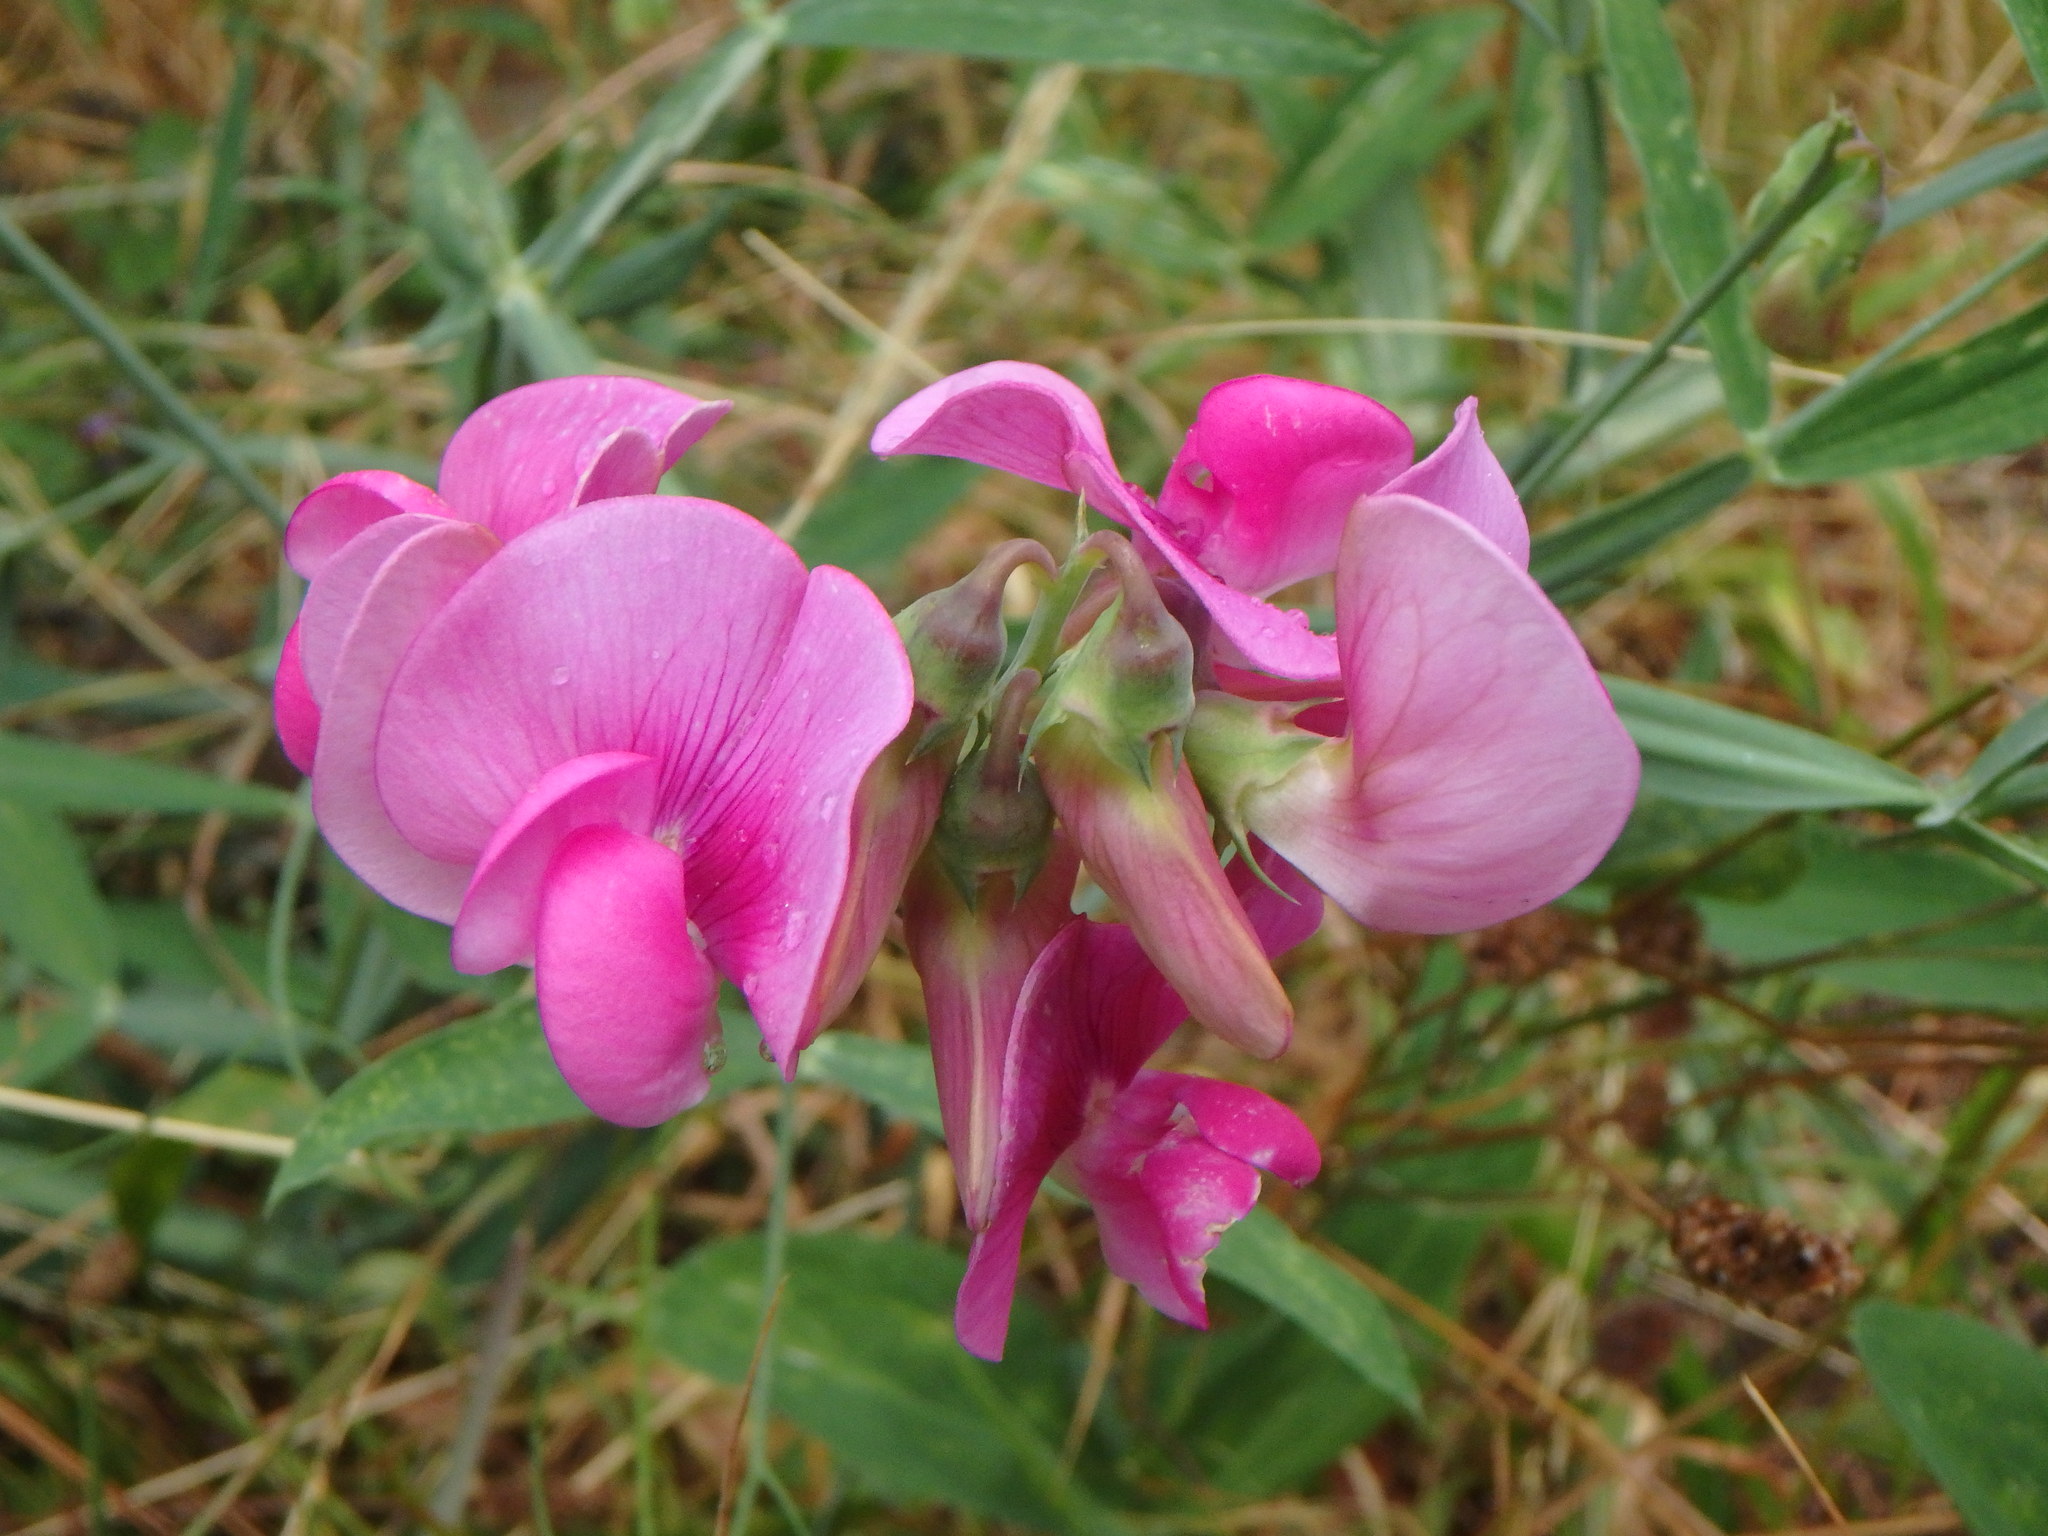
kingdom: Plantae
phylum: Tracheophyta
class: Magnoliopsida
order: Fabales
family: Fabaceae
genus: Lathyrus
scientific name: Lathyrus latifolius
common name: Perennial pea
